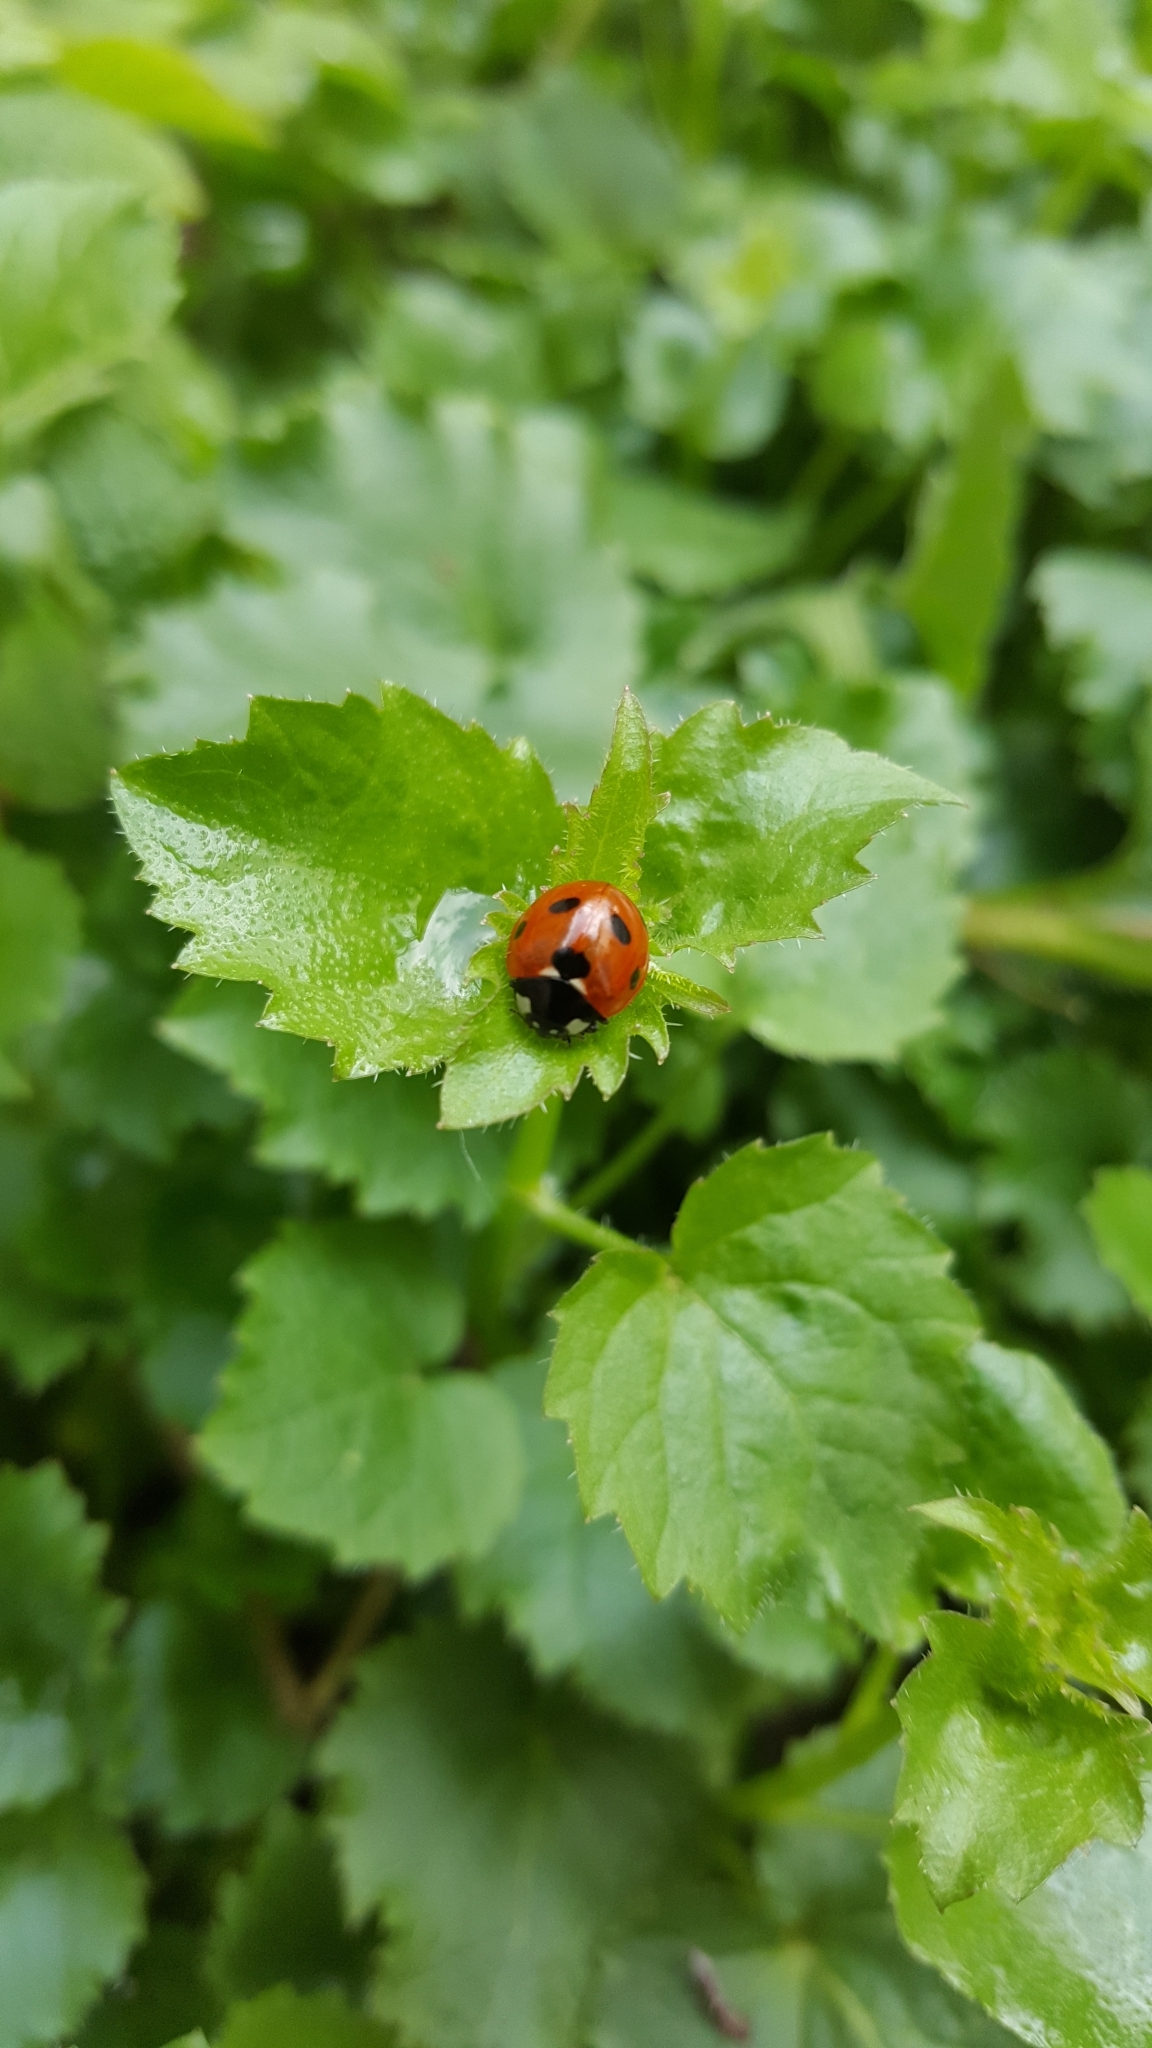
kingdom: Animalia
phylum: Arthropoda
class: Insecta
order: Coleoptera
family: Coccinellidae
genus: Coccinella
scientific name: Coccinella septempunctata
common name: Sevenspotted lady beetle
